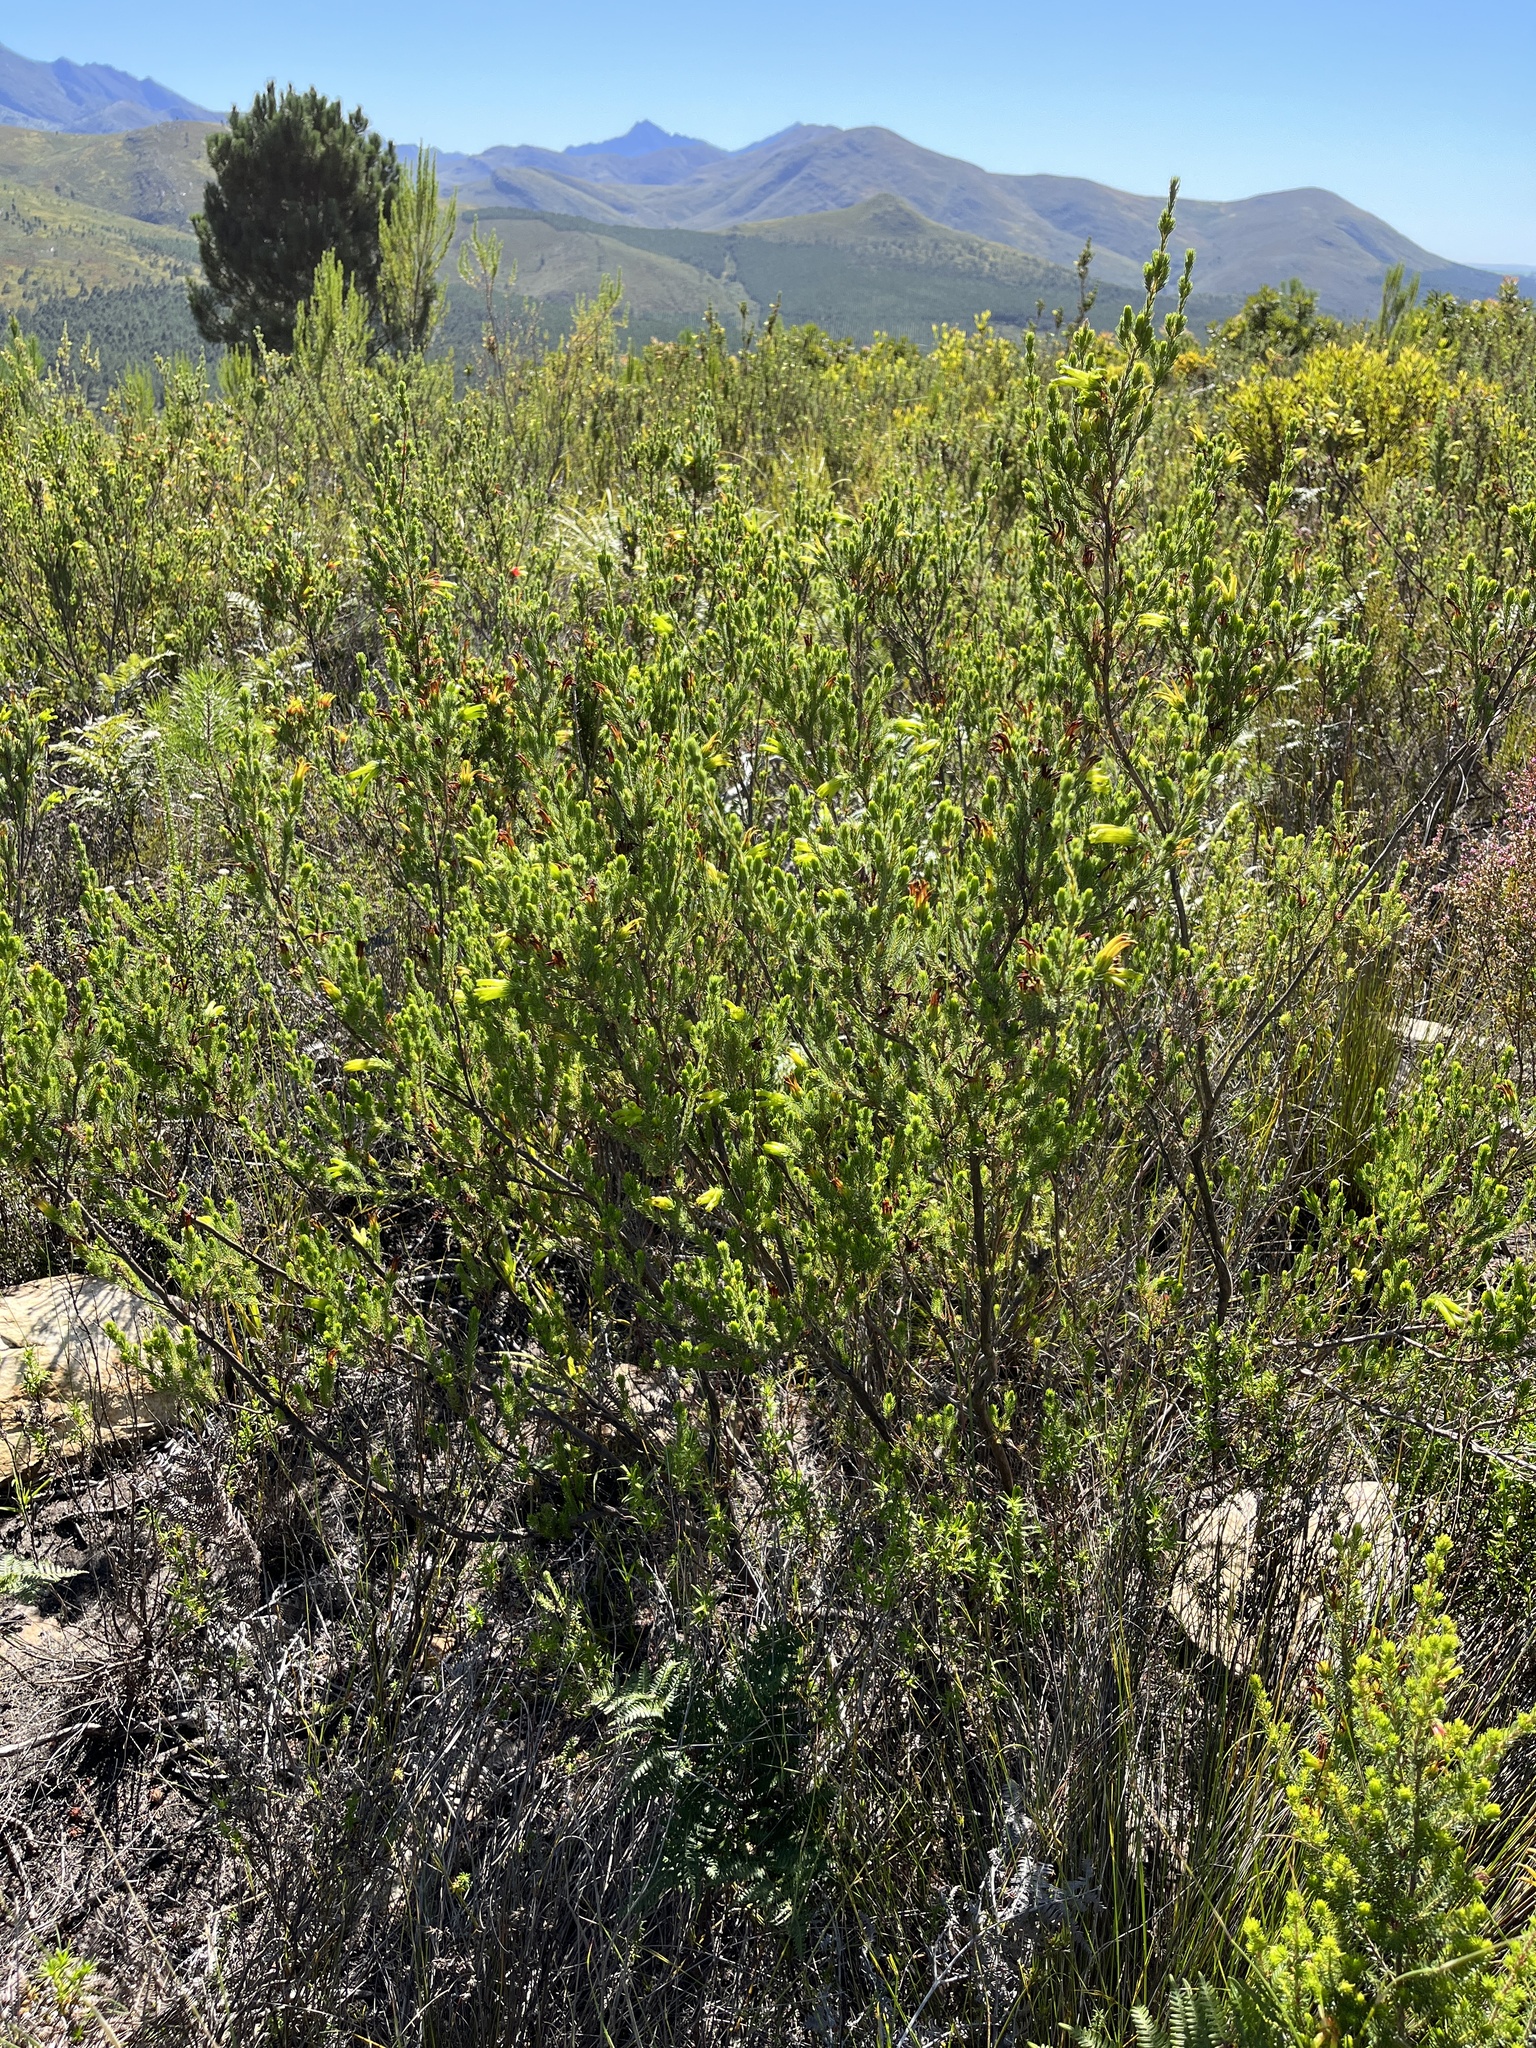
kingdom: Plantae
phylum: Tracheophyta
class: Magnoliopsida
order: Ericales
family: Ericaceae
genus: Erica
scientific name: Erica unicolor
